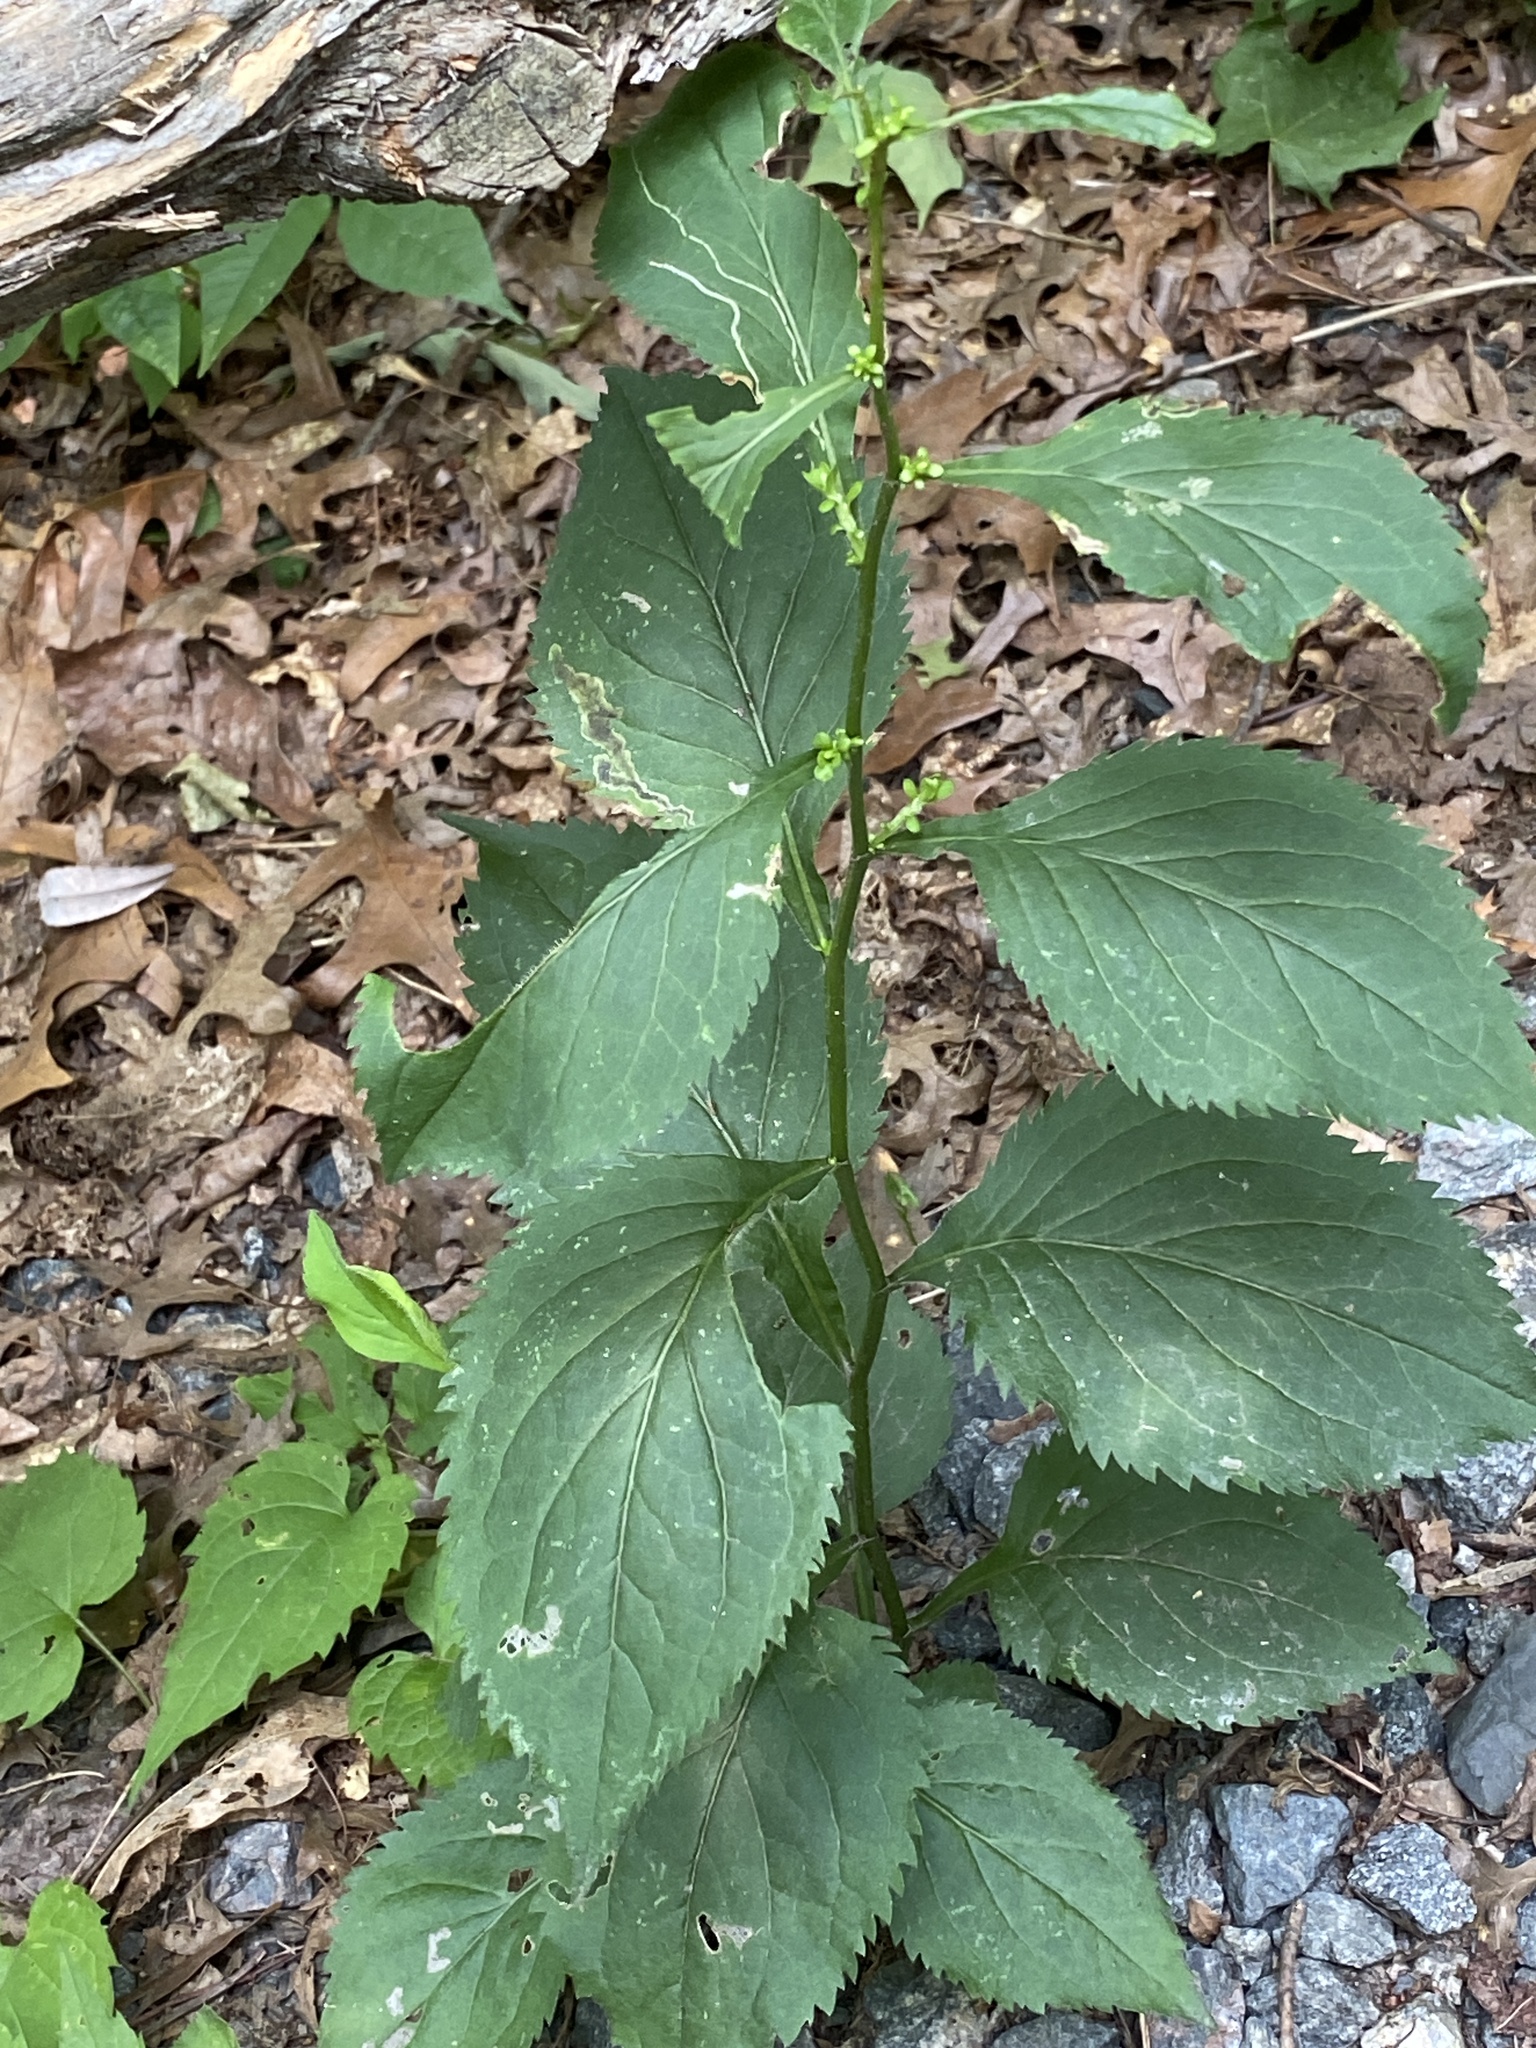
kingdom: Plantae
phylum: Tracheophyta
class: Magnoliopsida
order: Asterales
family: Asteraceae
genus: Solidago
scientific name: Solidago flexicaulis
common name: Zig-zag goldenrod
